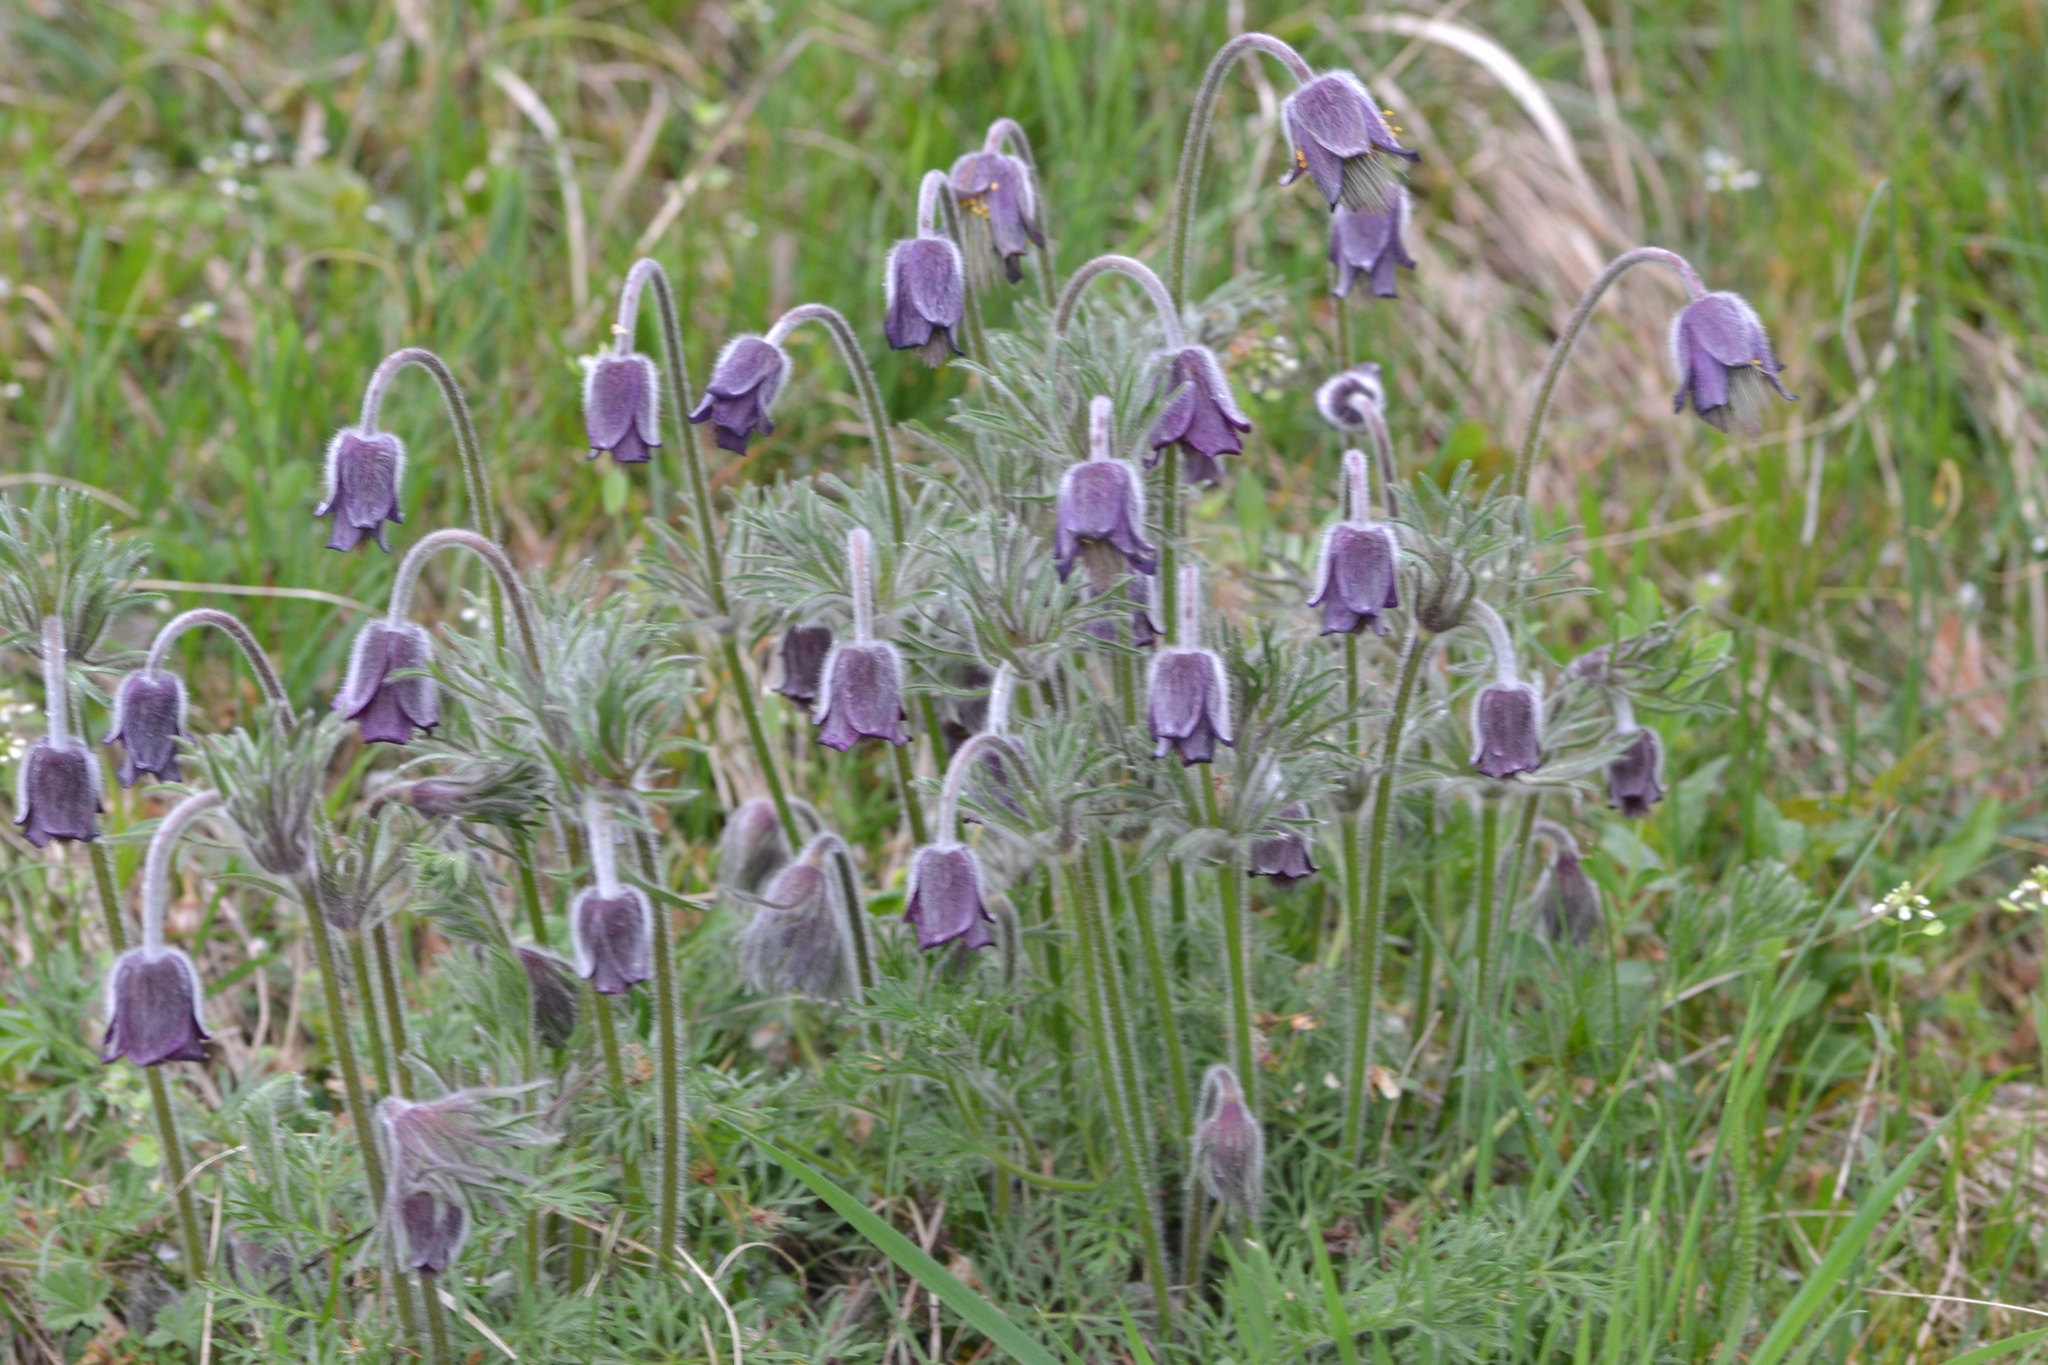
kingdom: Plantae
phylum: Tracheophyta
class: Magnoliopsida
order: Ranunculales
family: Ranunculaceae
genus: Pulsatilla
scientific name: Pulsatilla pratensis
